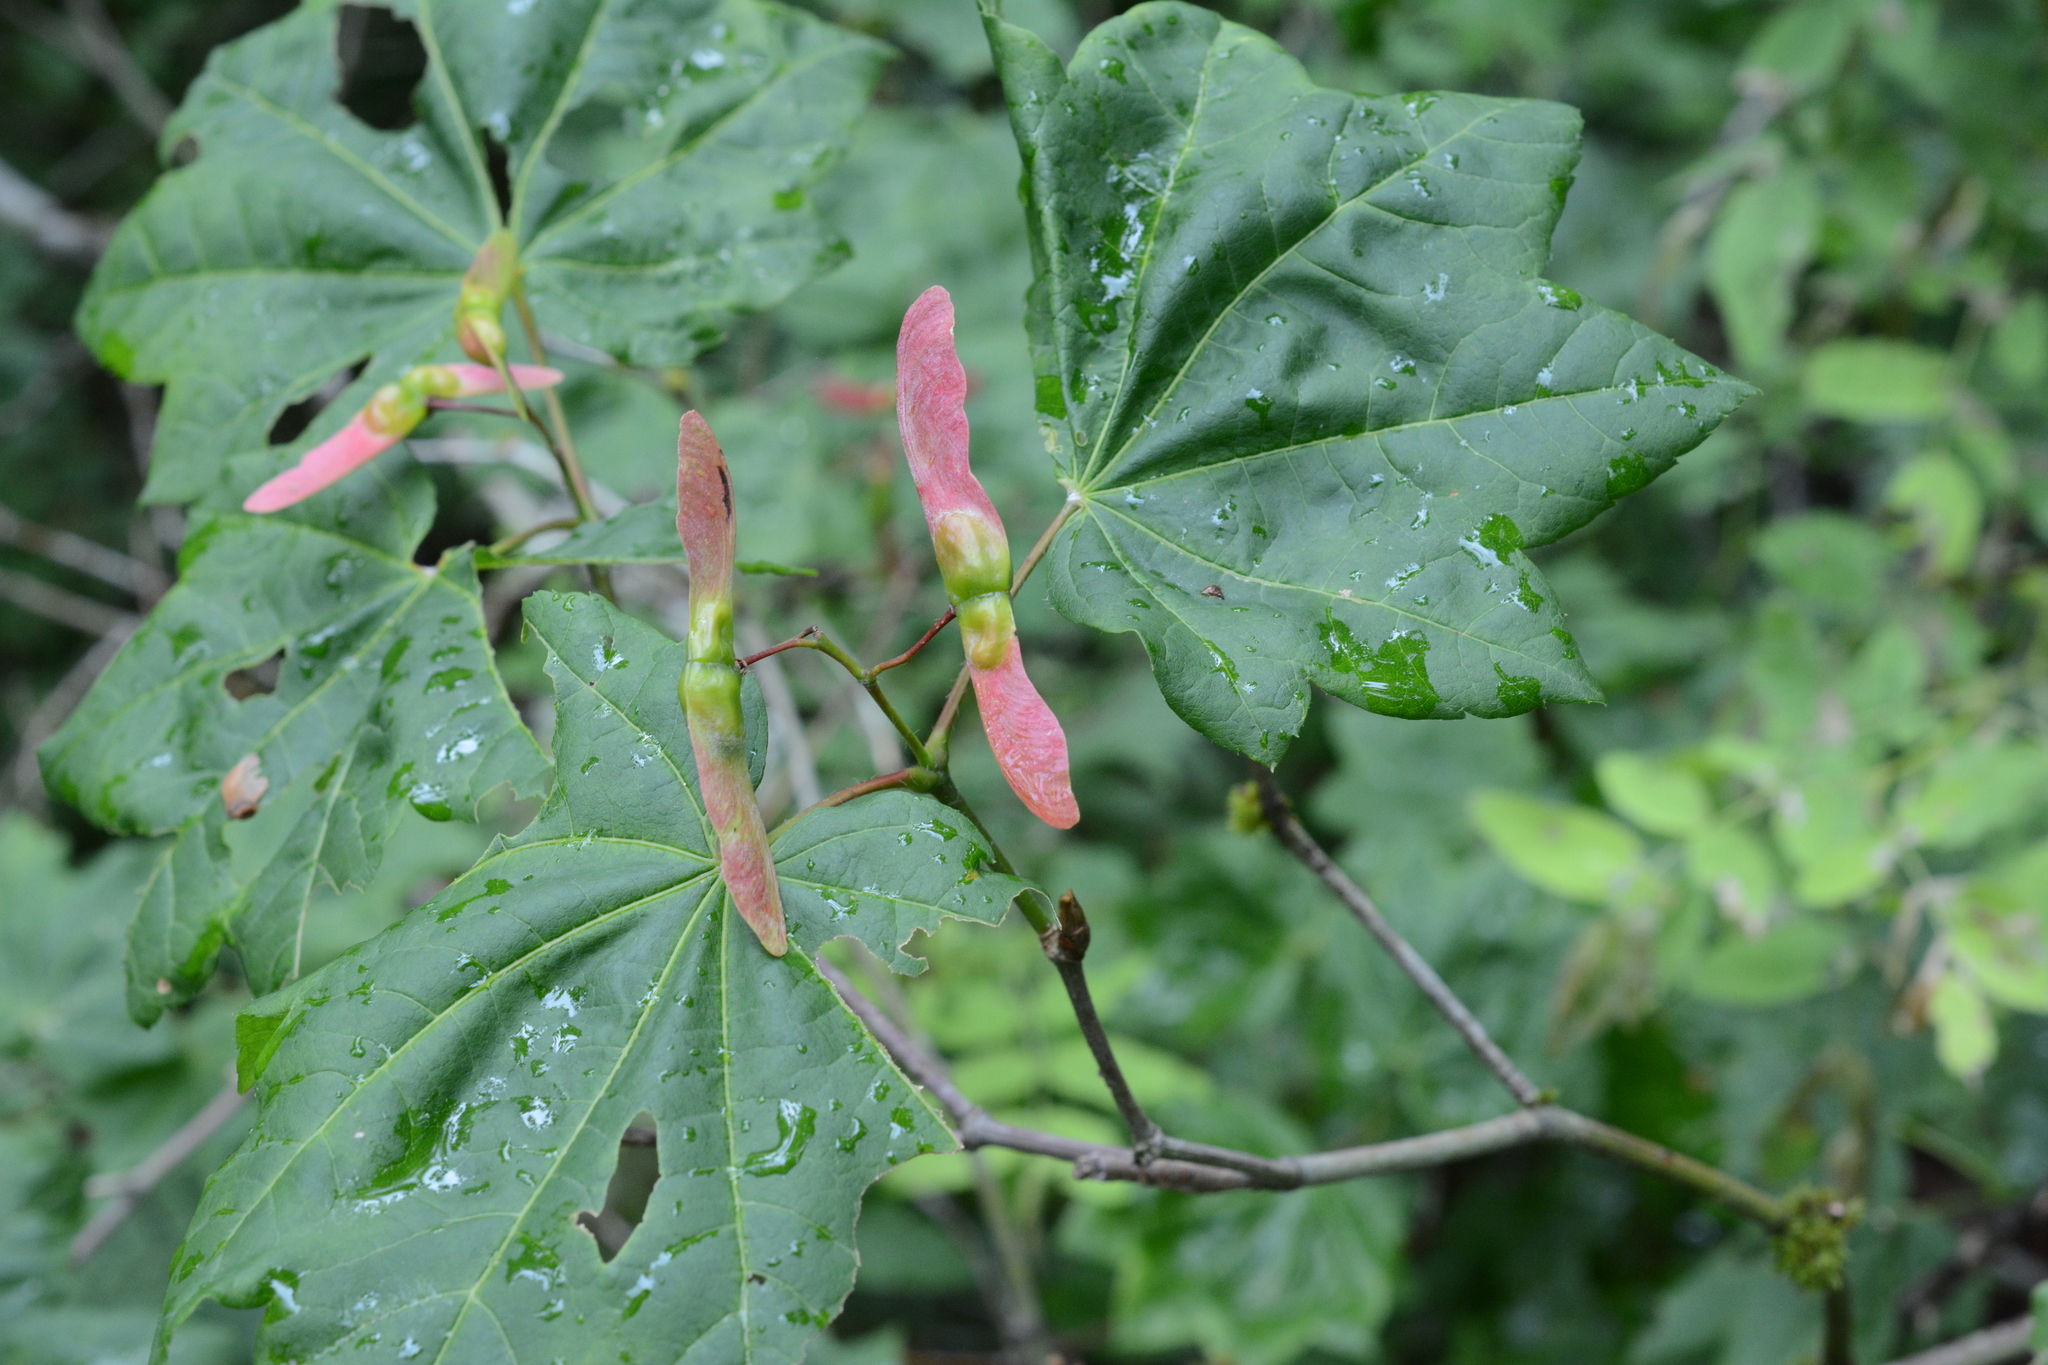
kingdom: Plantae
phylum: Tracheophyta
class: Magnoliopsida
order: Sapindales
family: Sapindaceae
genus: Acer
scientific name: Acer circinatum
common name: Vine maple
